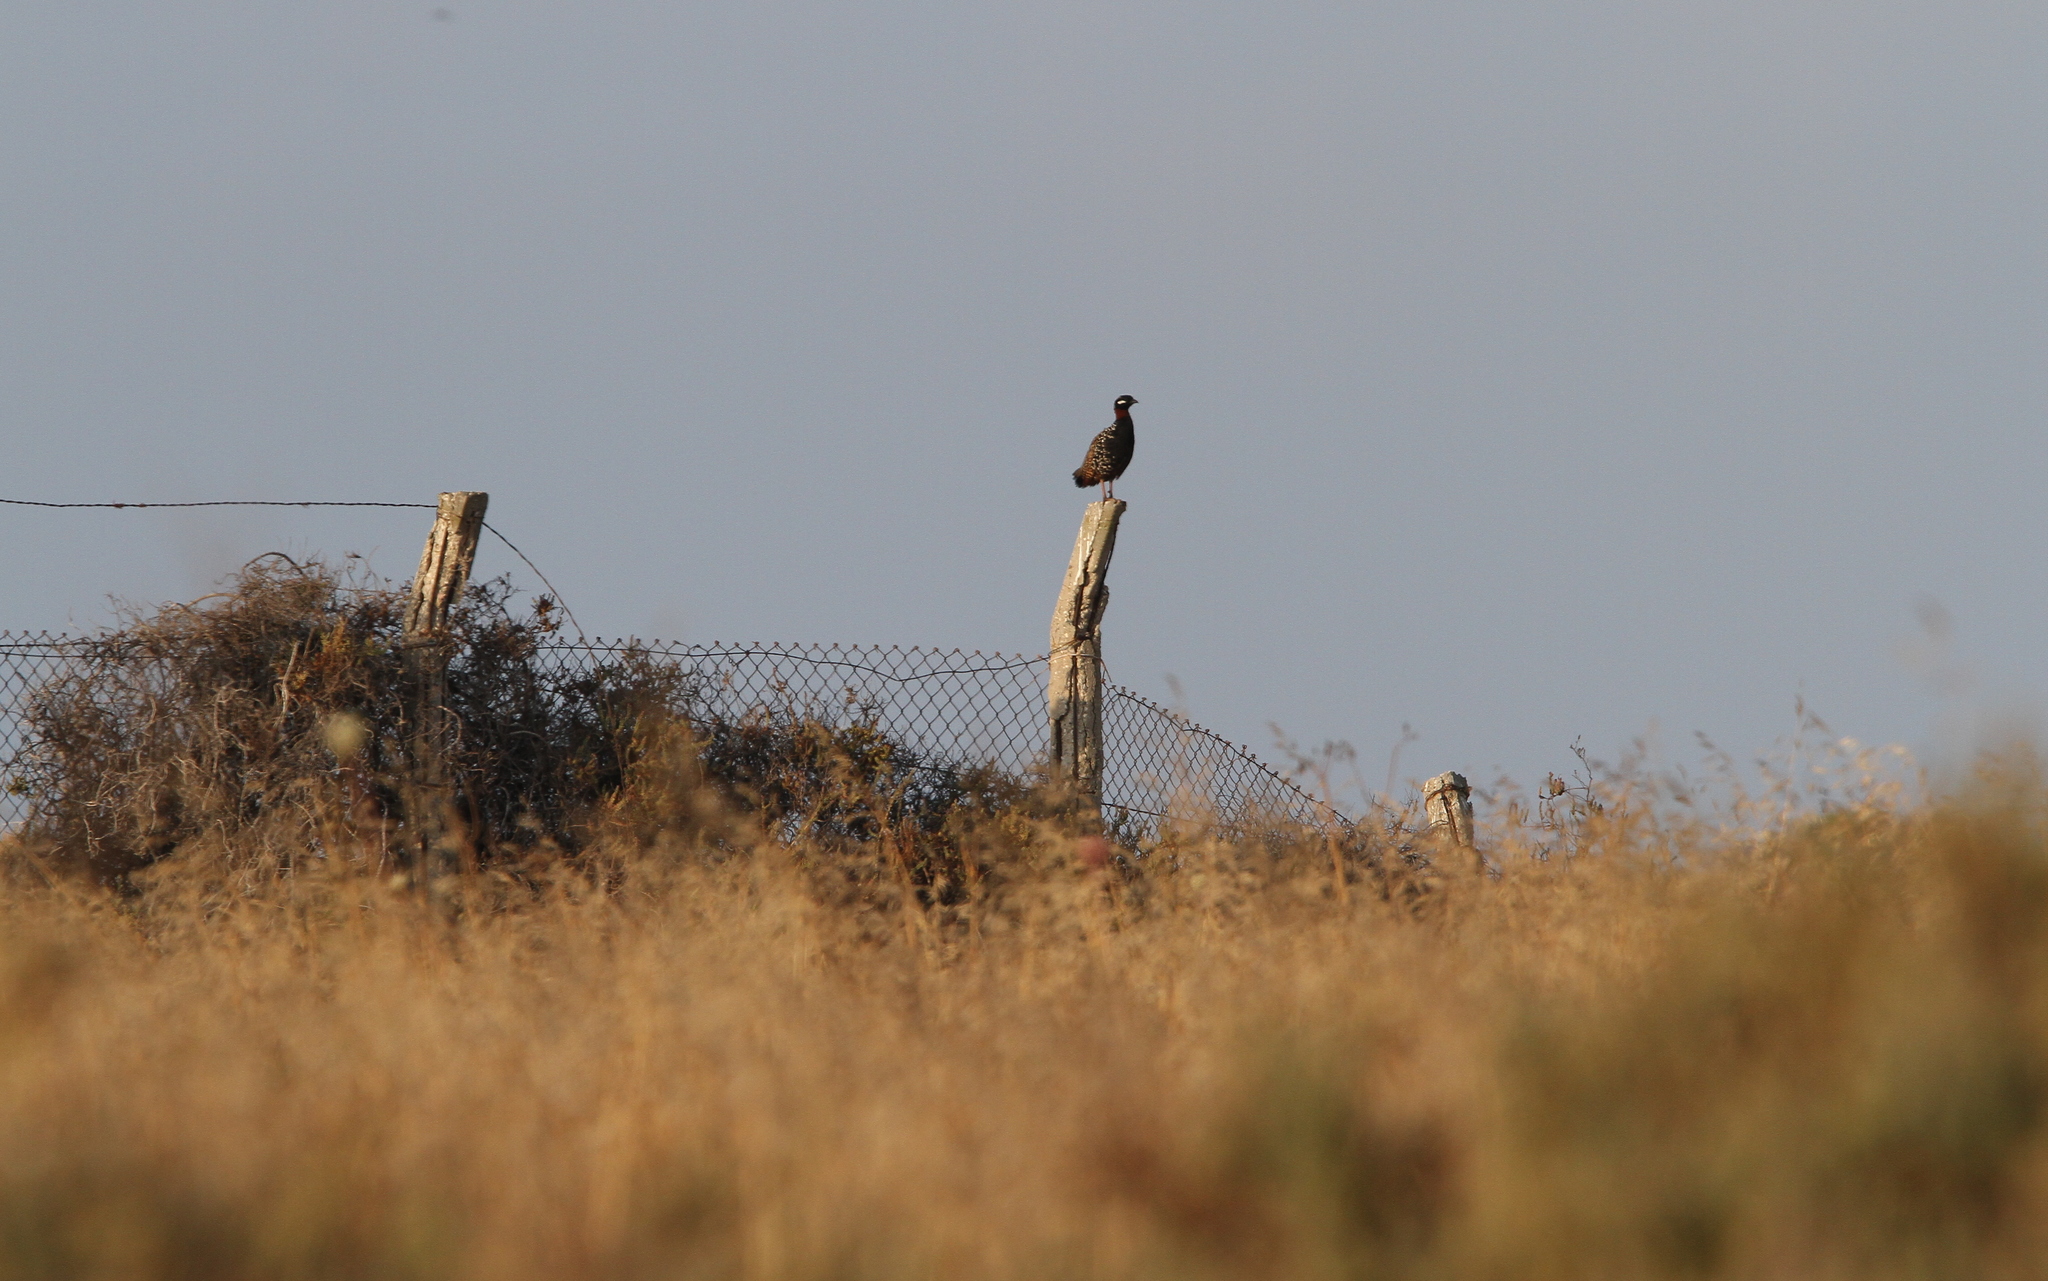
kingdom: Animalia
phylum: Chordata
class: Aves
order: Galliformes
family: Phasianidae
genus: Francolinus
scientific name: Francolinus francolinus
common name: Black francolin
